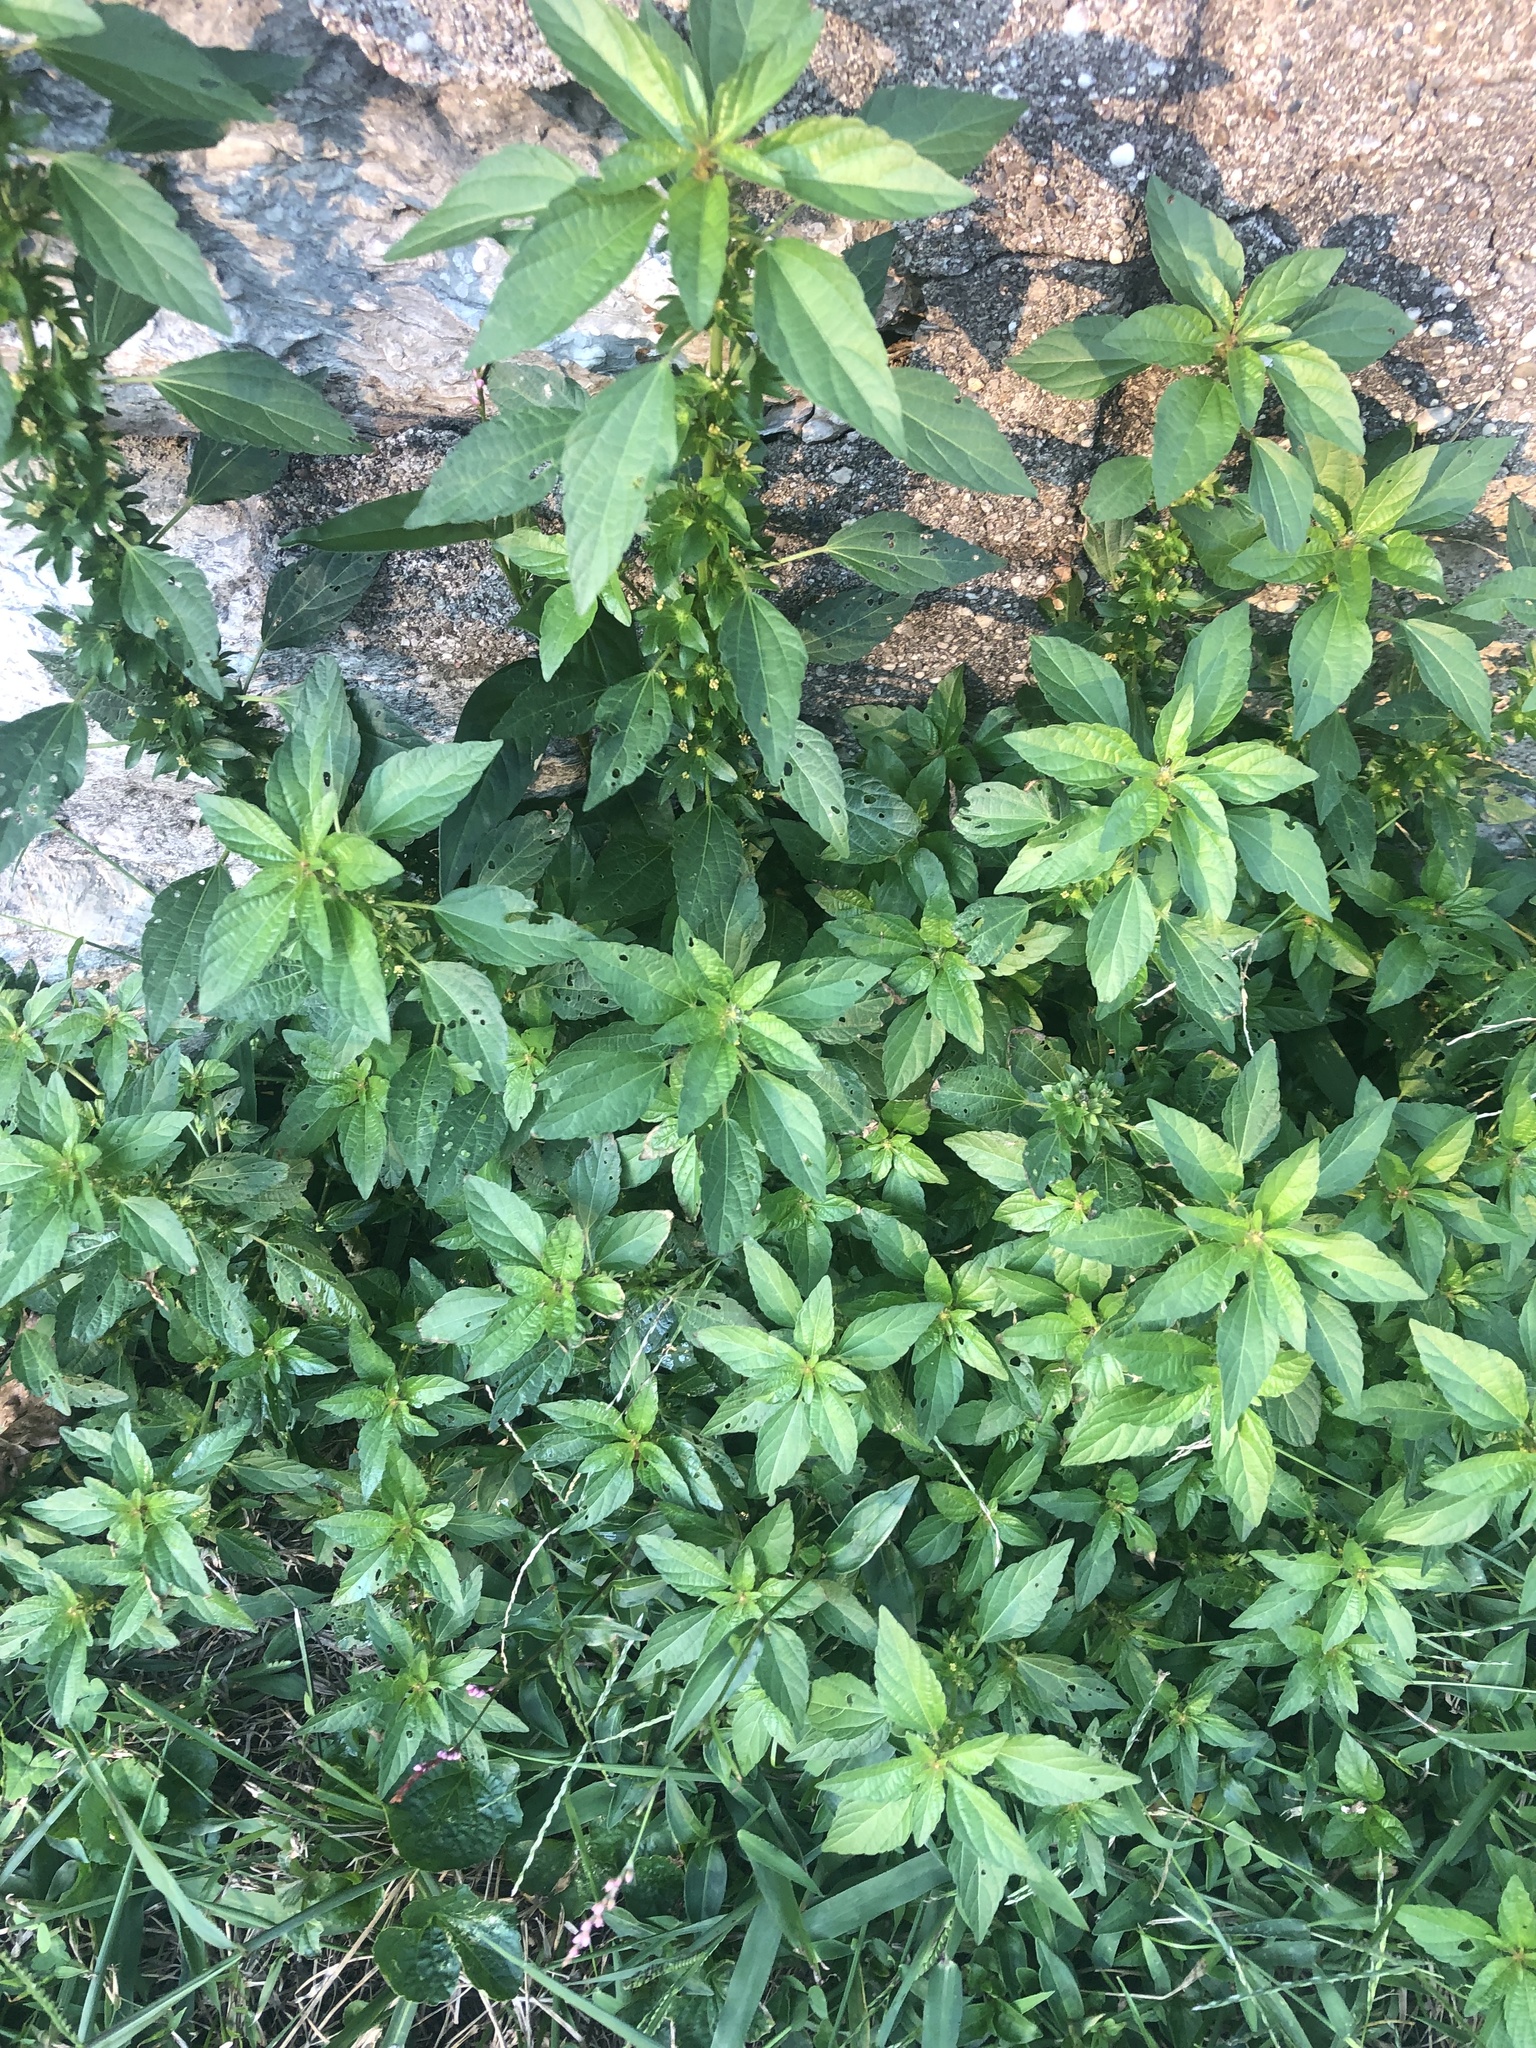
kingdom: Plantae
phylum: Tracheophyta
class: Magnoliopsida
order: Malpighiales
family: Euphorbiaceae
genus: Acalypha
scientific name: Acalypha rhomboidea
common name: Rhombic copperleaf
